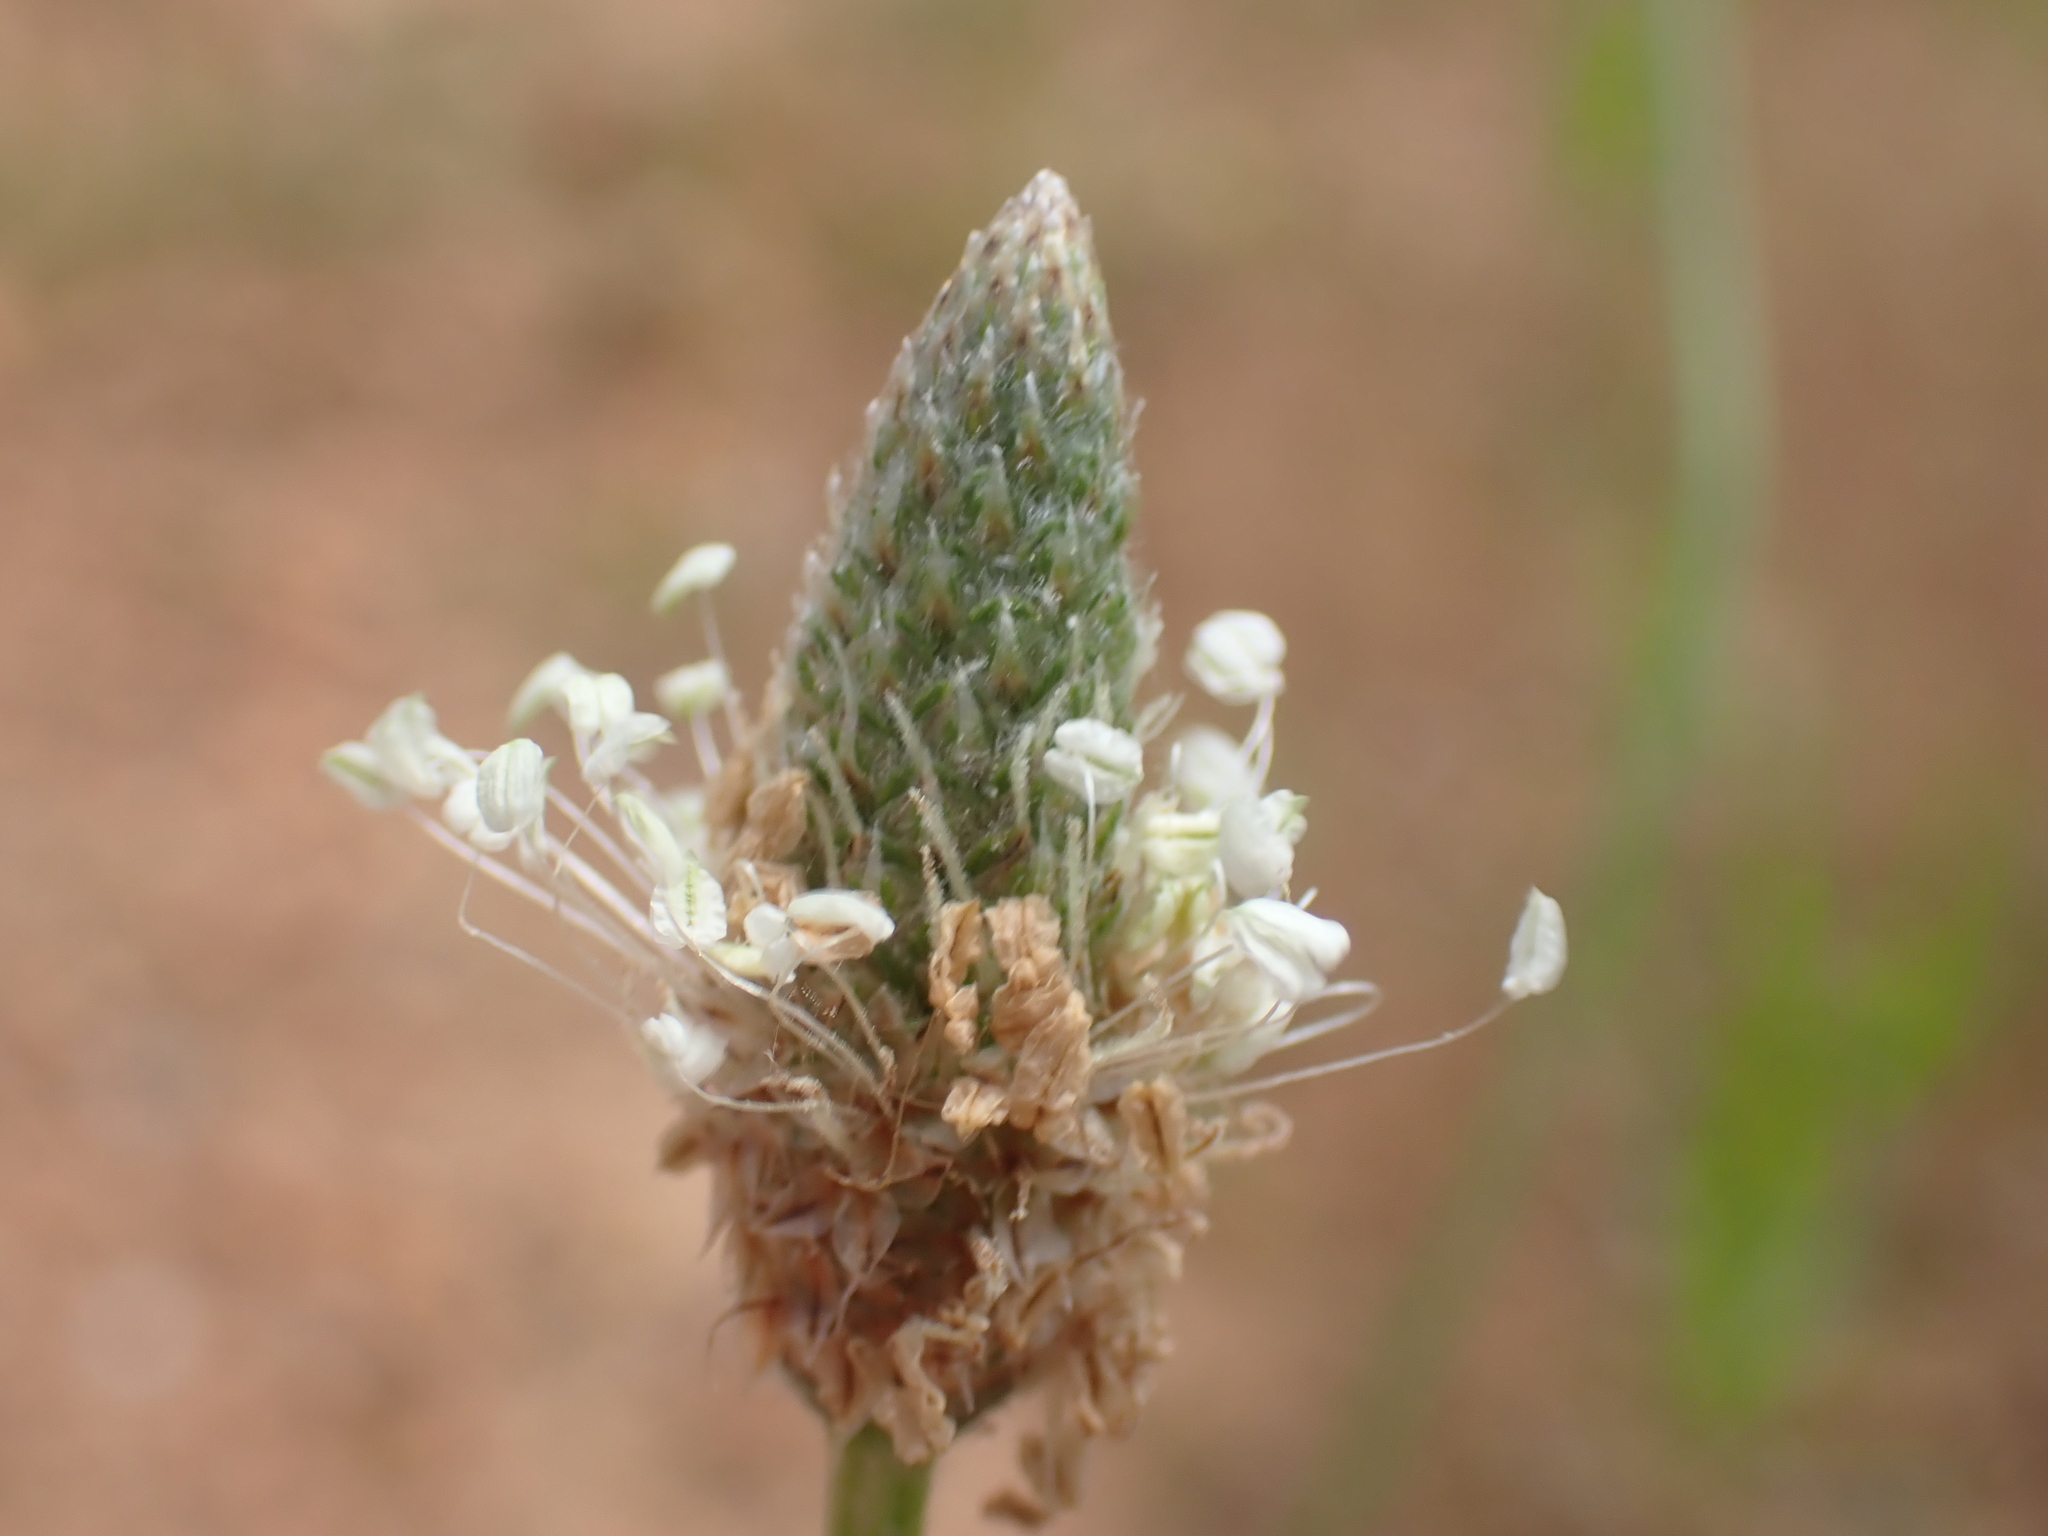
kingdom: Plantae
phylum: Tracheophyta
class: Magnoliopsida
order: Lamiales
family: Plantaginaceae
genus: Plantago
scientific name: Plantago lanceolata
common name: Ribwort plantain
